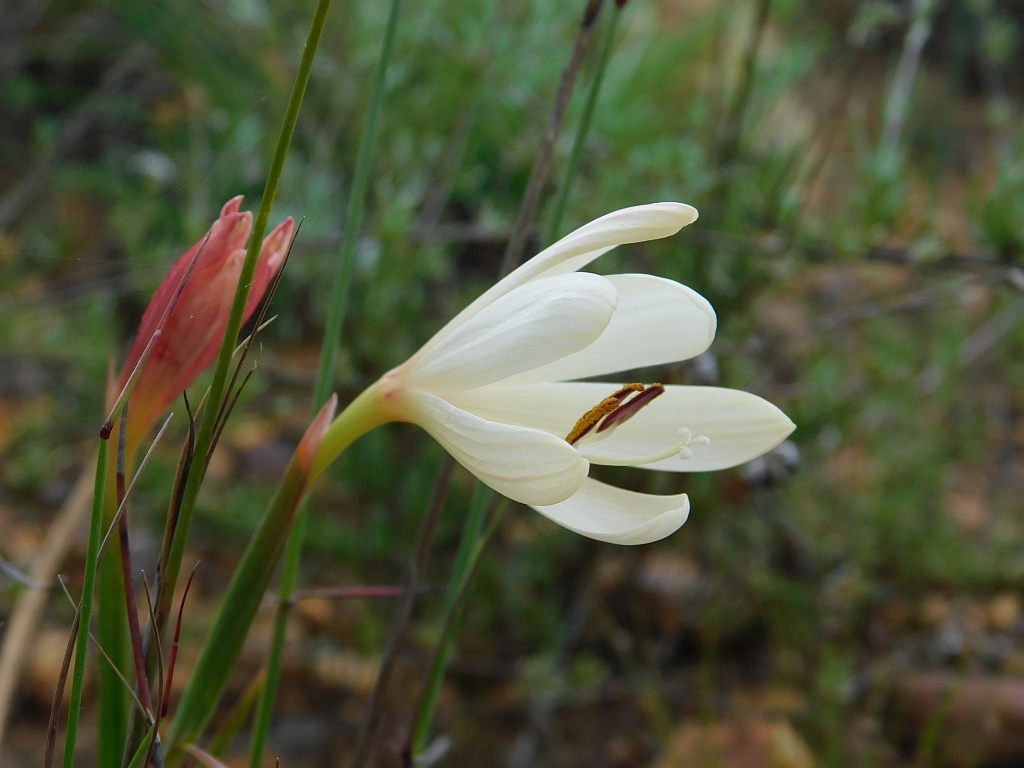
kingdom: Plantae
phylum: Tracheophyta
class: Liliopsida
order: Asparagales
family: Iridaceae
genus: Geissorhiza
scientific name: Geissorhiza schinzii
